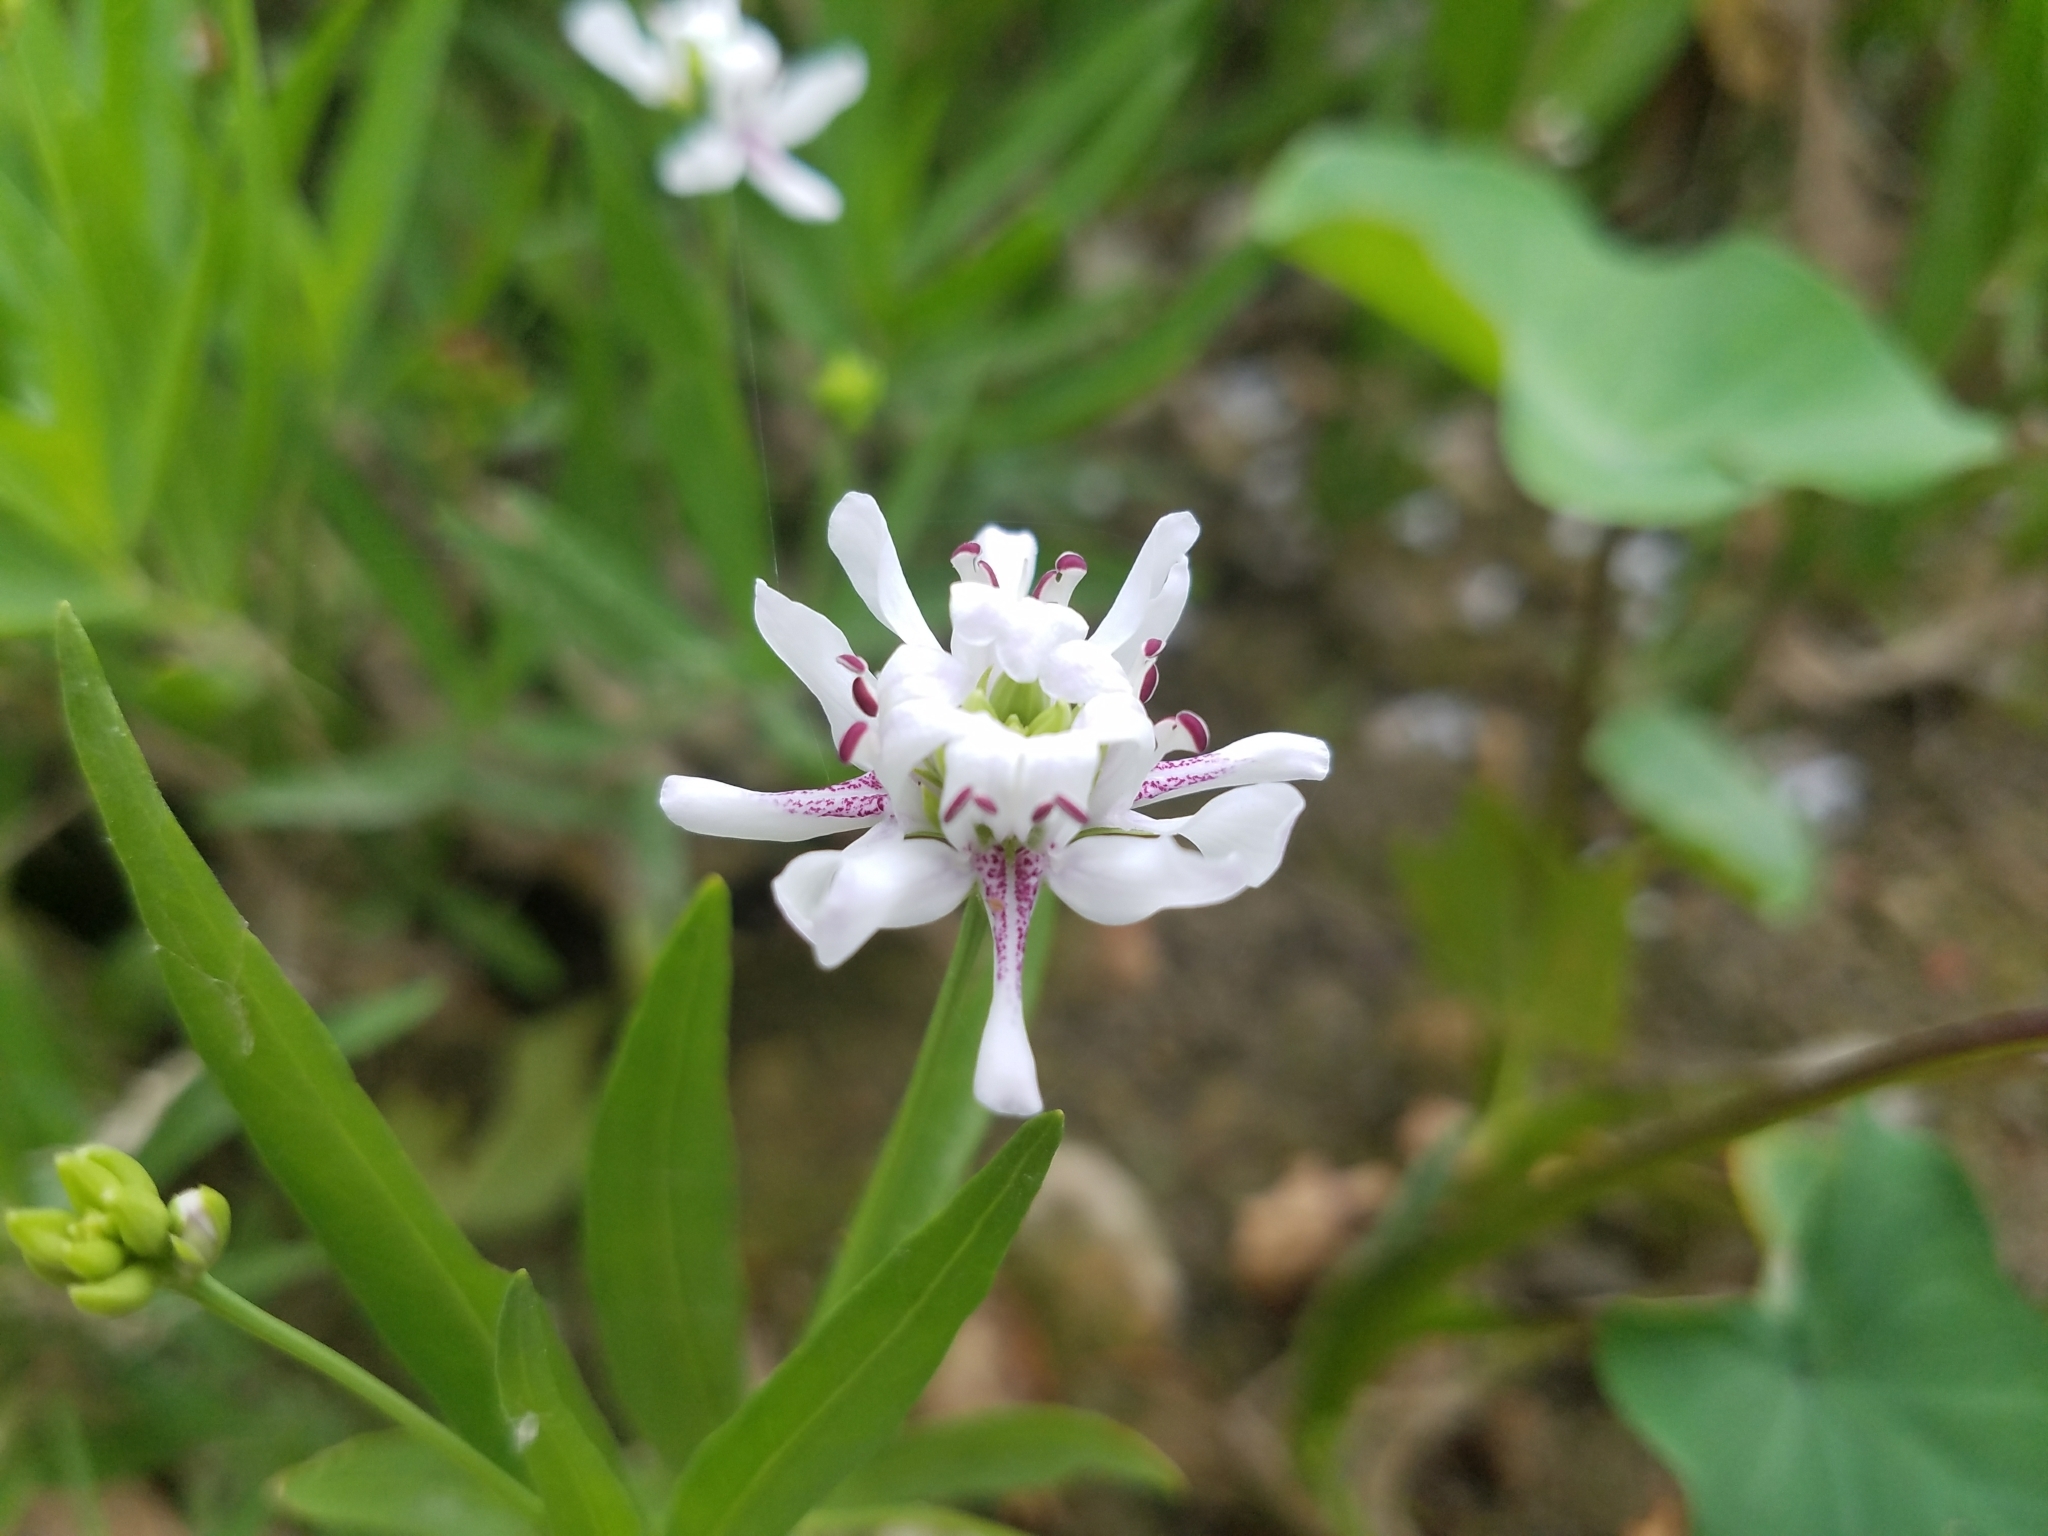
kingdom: Plantae
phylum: Tracheophyta
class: Magnoliopsida
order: Lamiales
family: Acanthaceae
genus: Dianthera
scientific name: Dianthera americana
